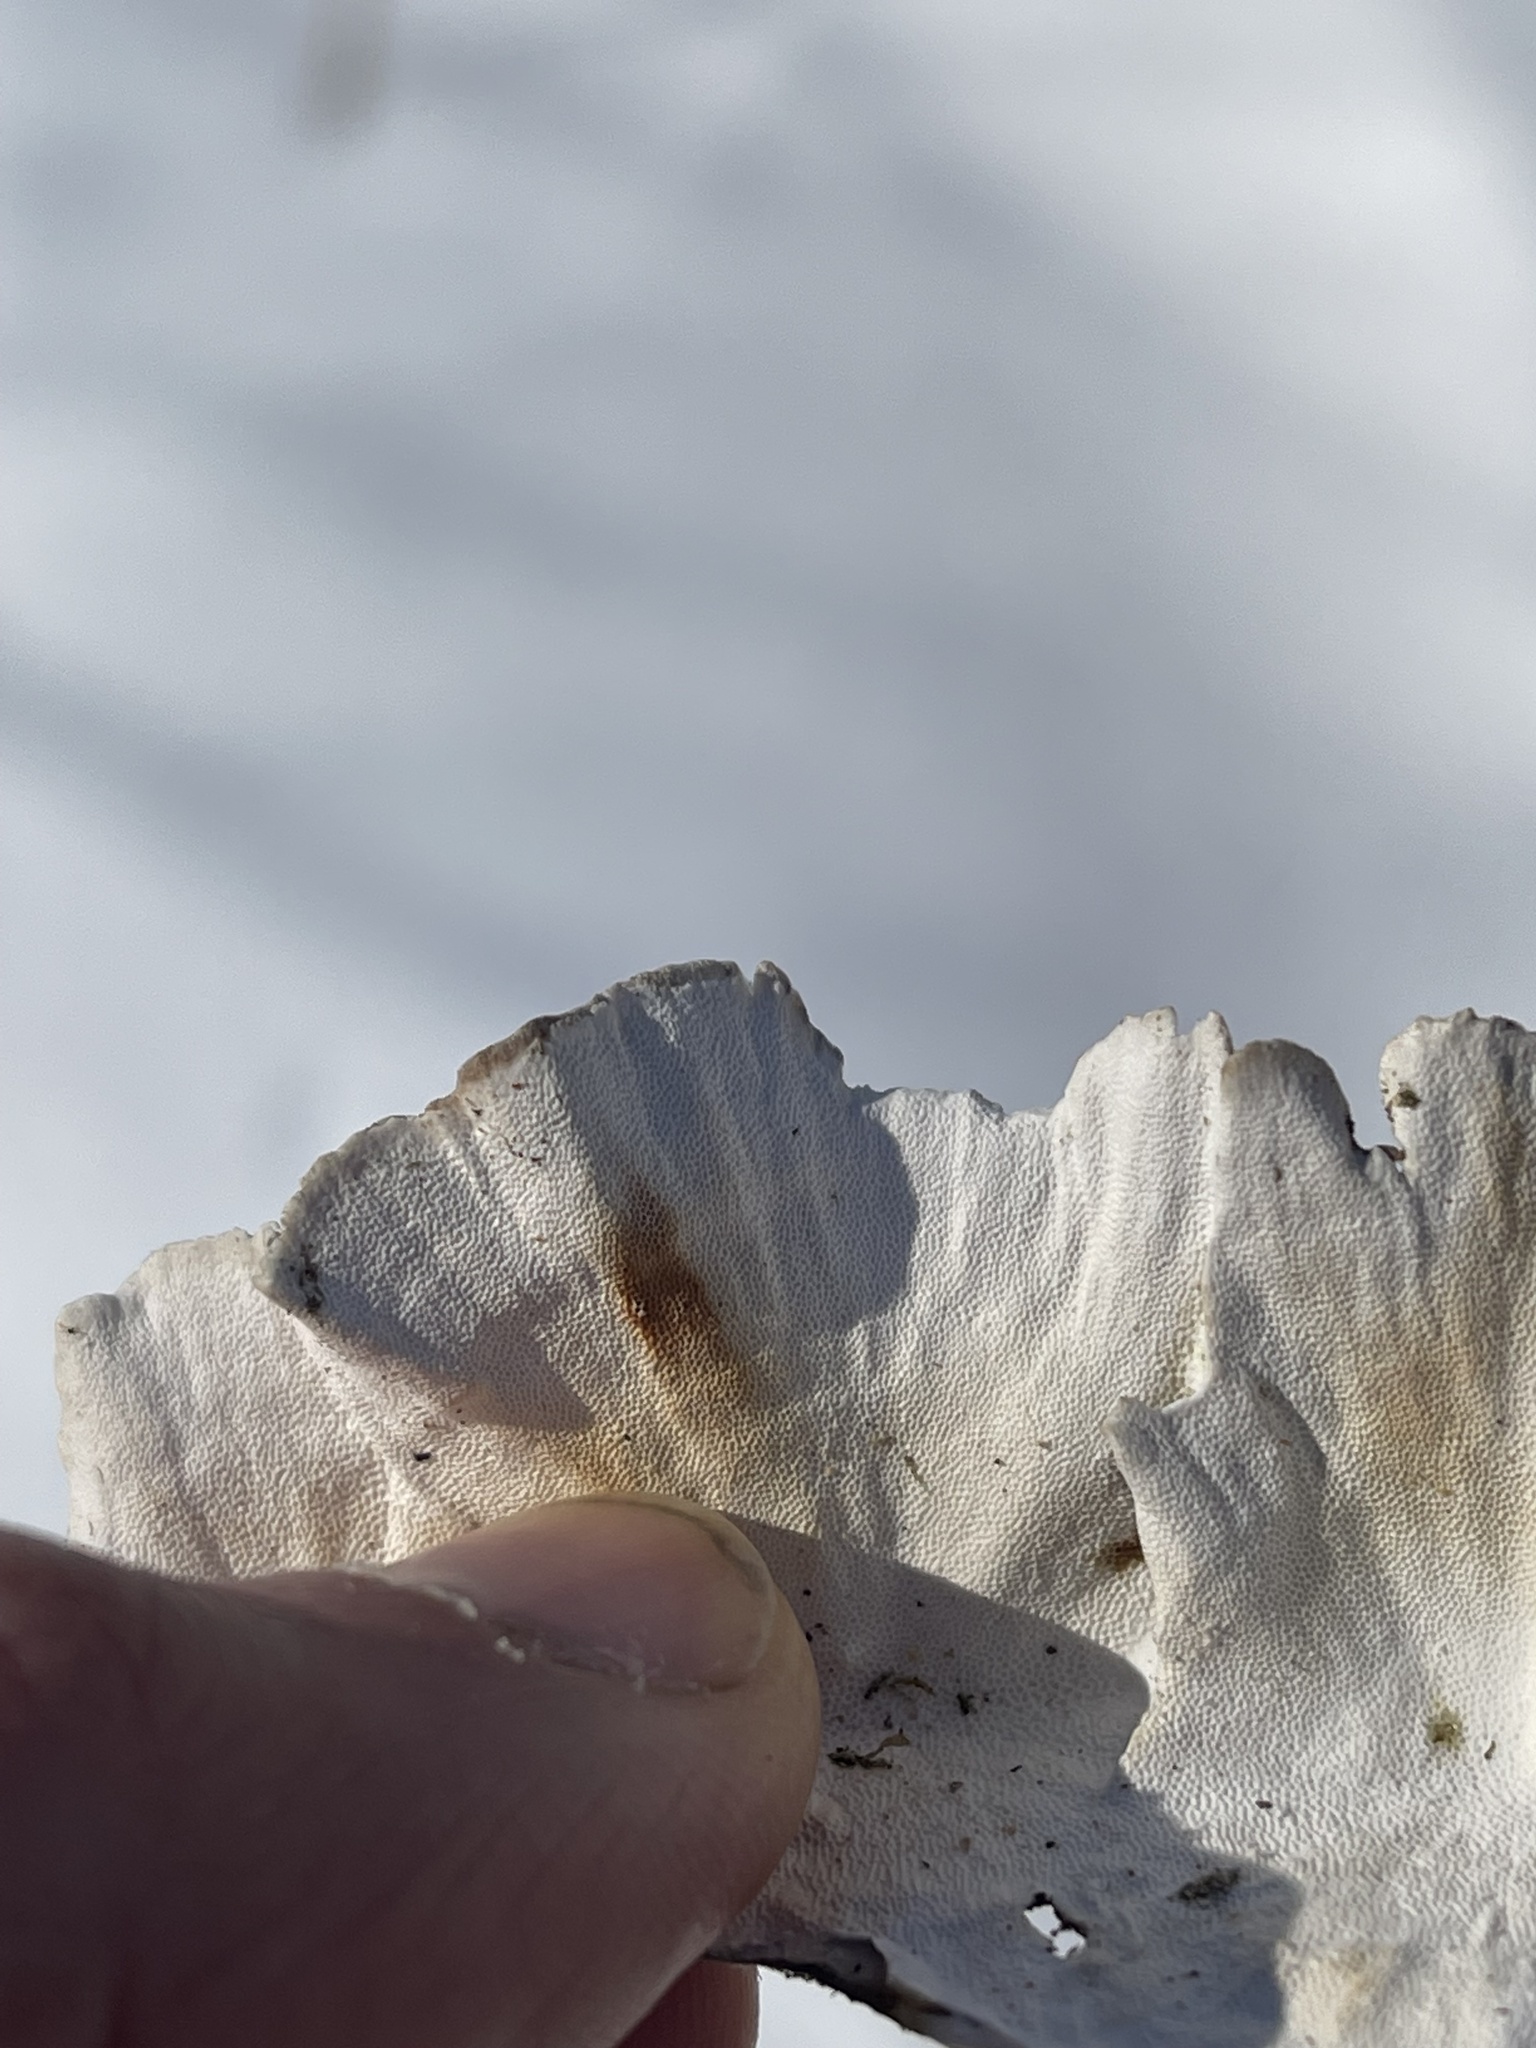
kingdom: Fungi
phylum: Basidiomycota
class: Agaricomycetes
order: Polyporales
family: Polyporaceae
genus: Trametes
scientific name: Trametes versicolor
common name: Turkeytail
